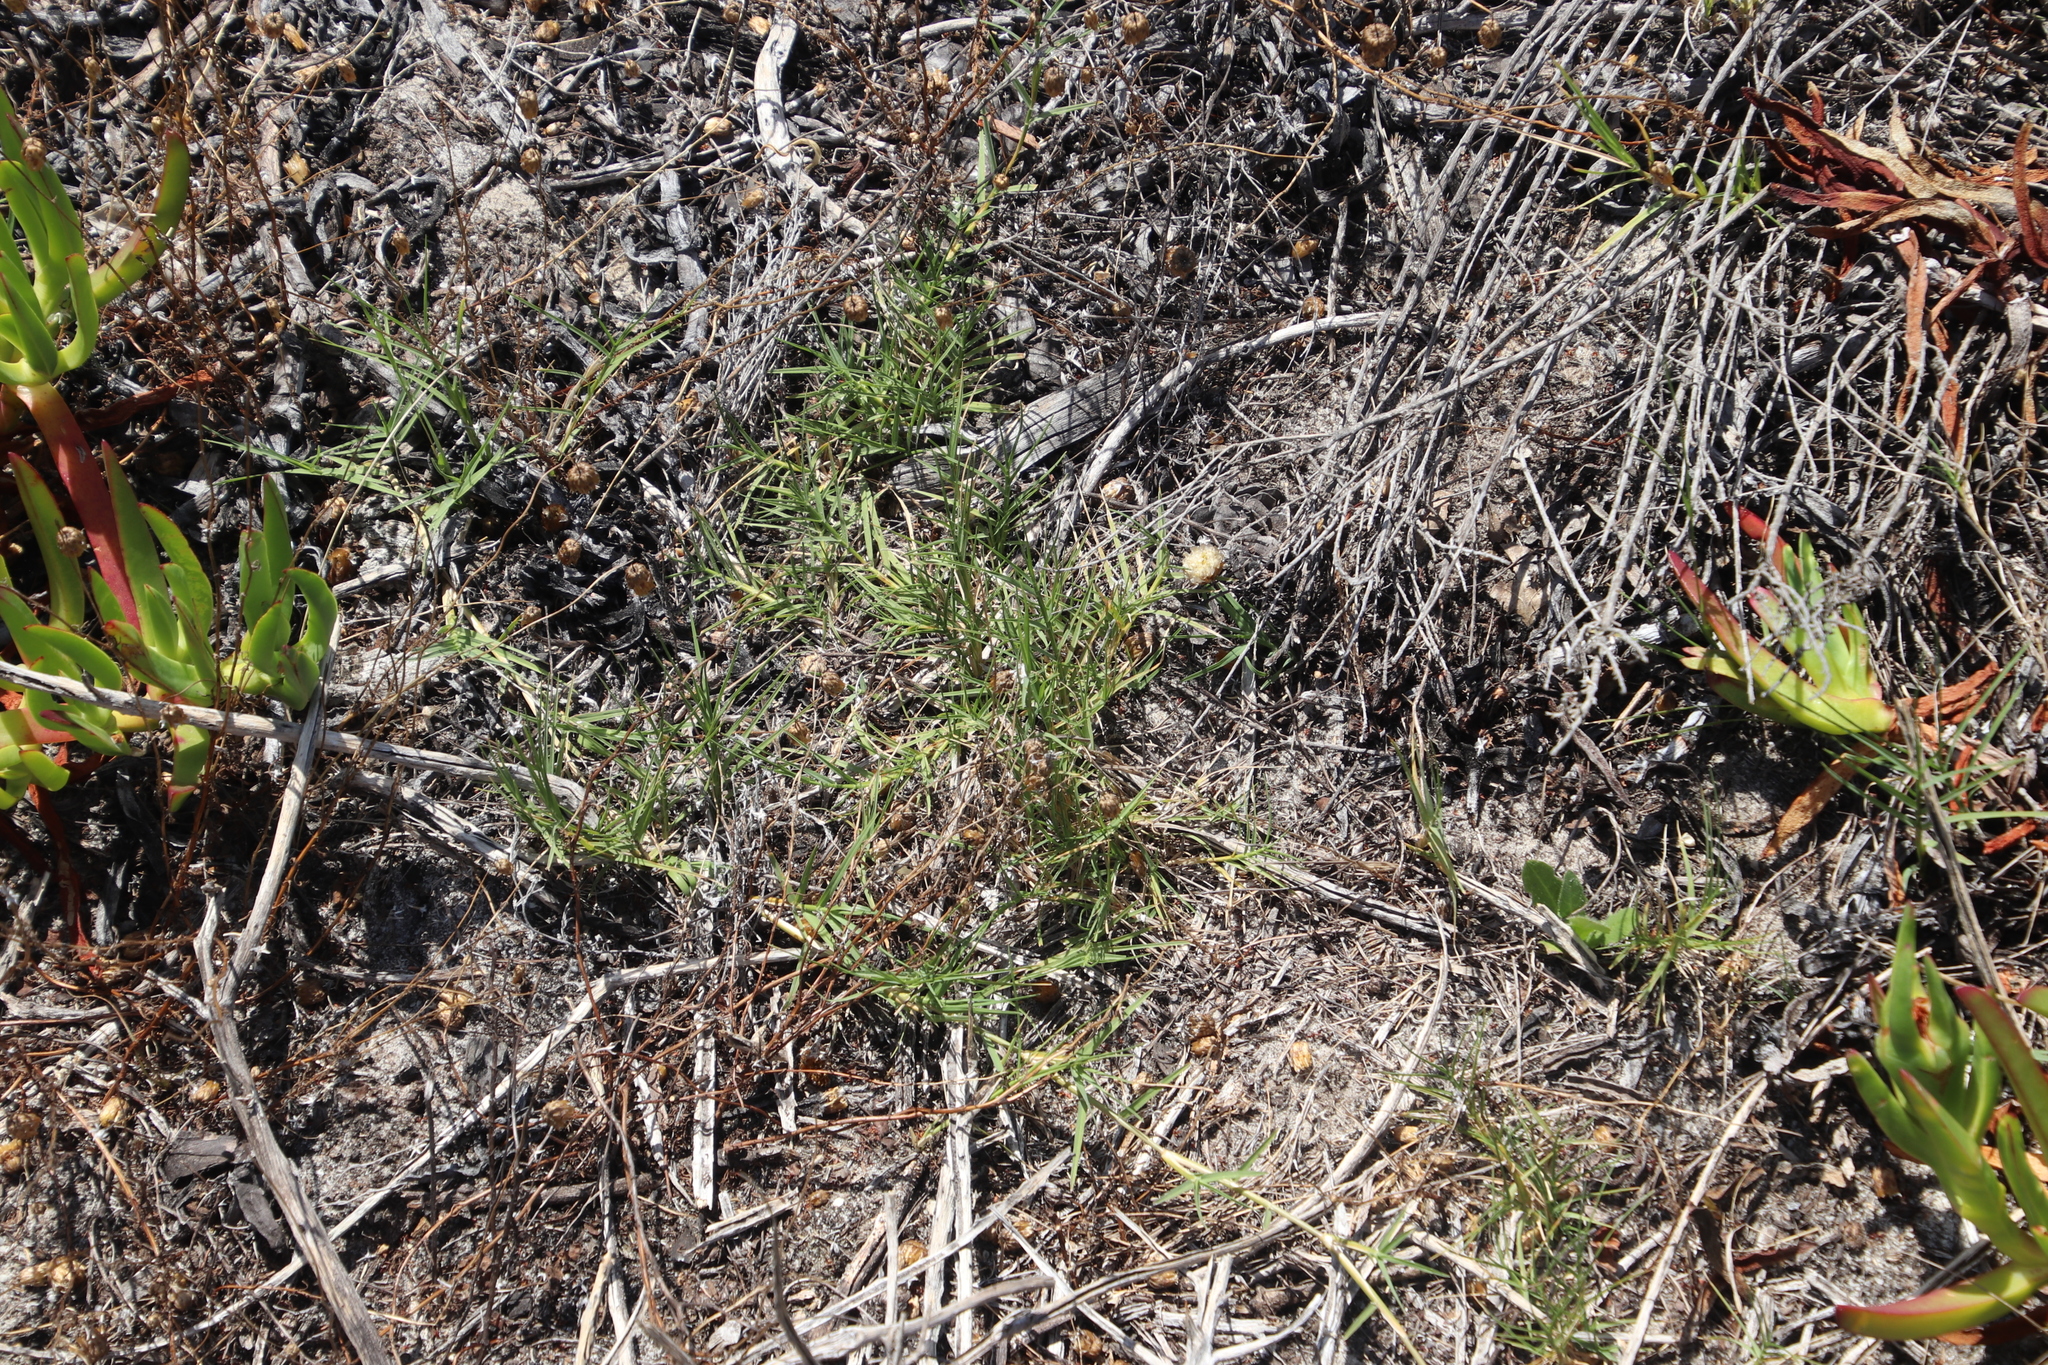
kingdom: Plantae
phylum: Tracheophyta
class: Liliopsida
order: Poales
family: Poaceae
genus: Cynodon
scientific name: Cynodon dactylon
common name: Bermuda grass
